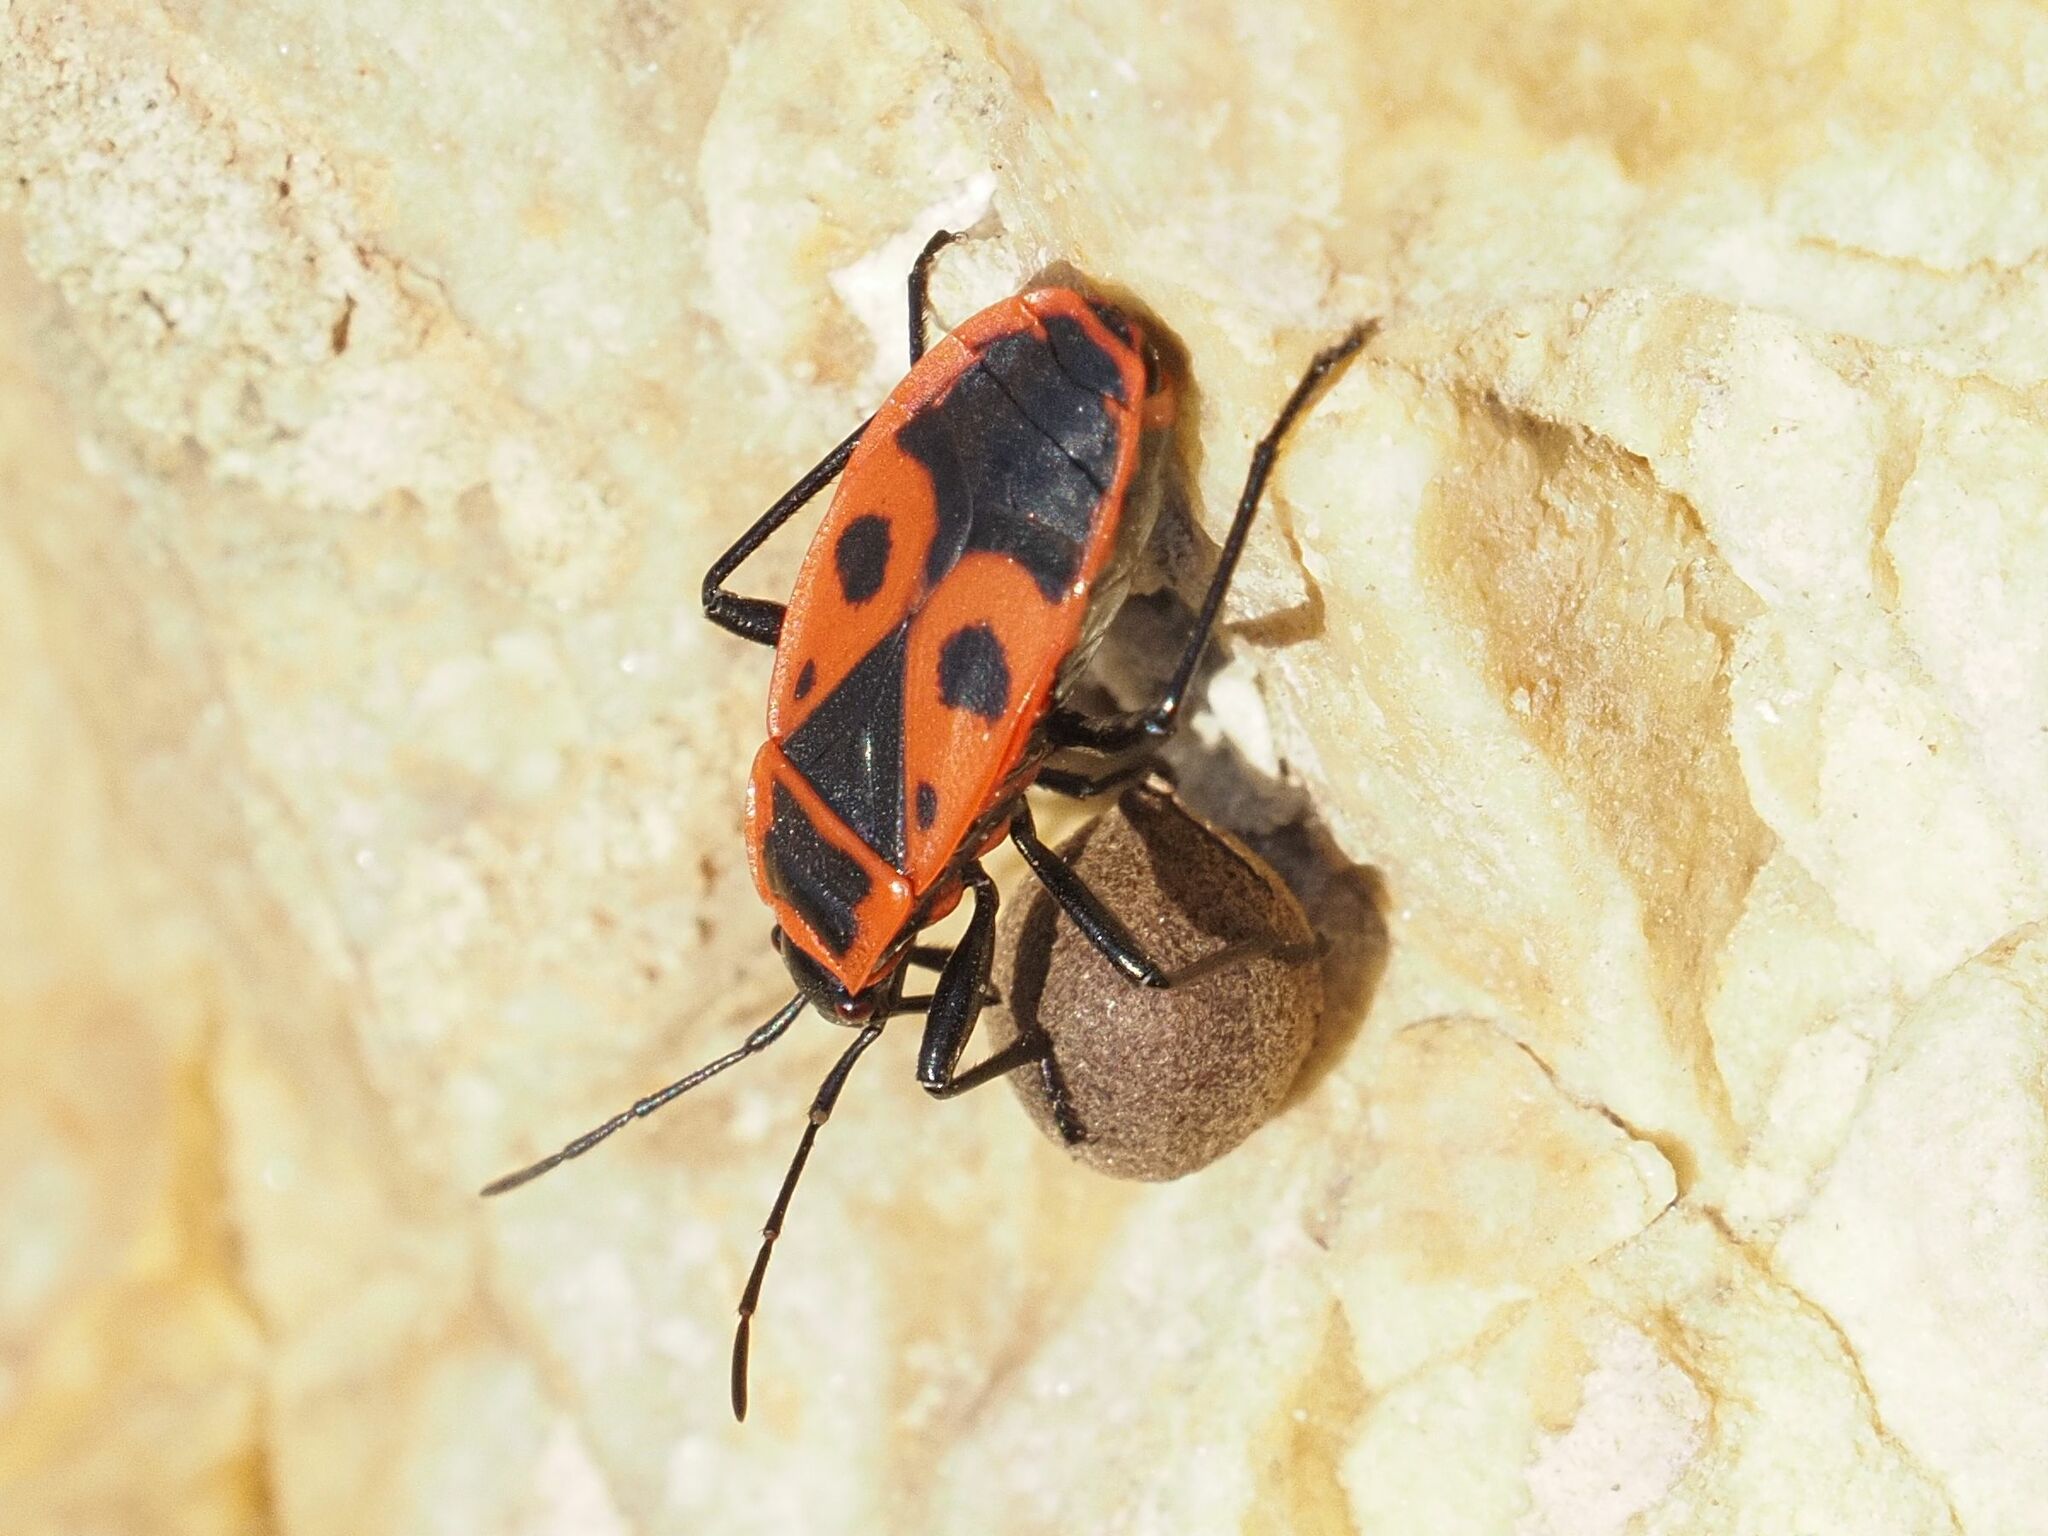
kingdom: Animalia
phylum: Arthropoda
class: Insecta
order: Hemiptera
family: Pyrrhocoridae
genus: Pyrrhocoris
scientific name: Pyrrhocoris apterus
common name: Firebug
